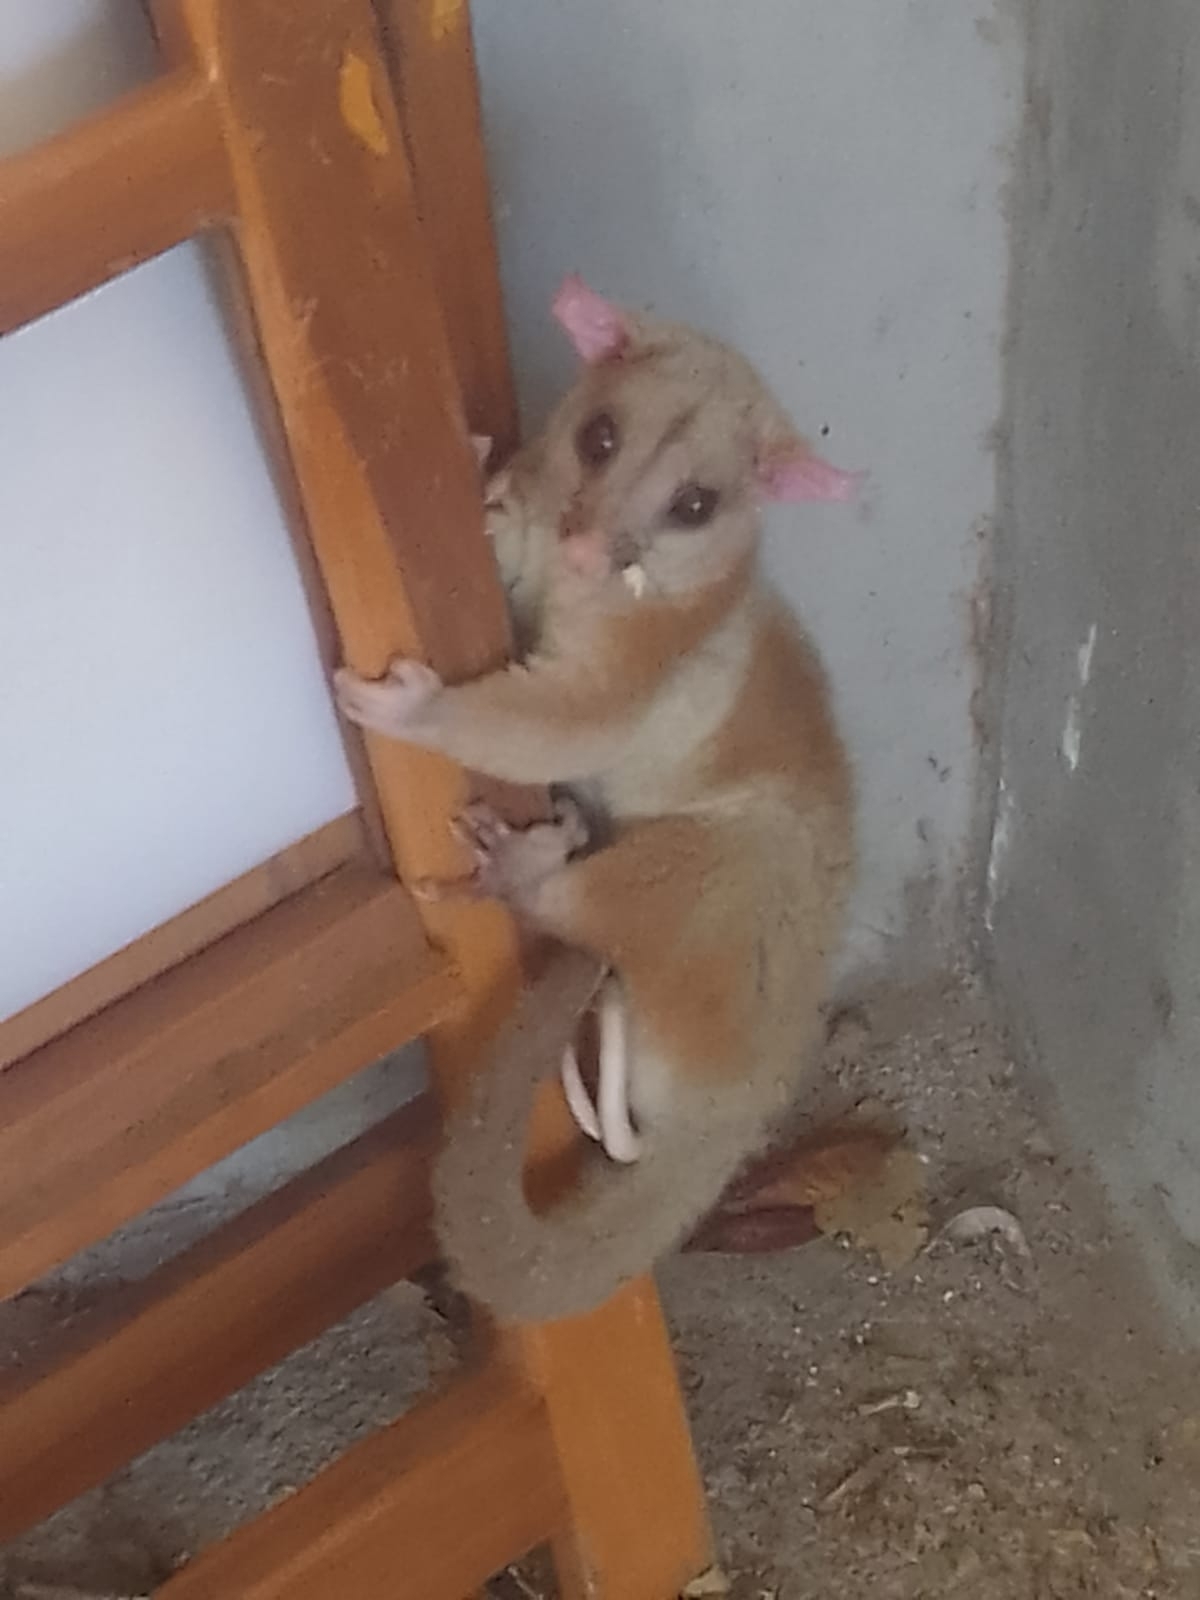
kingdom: Animalia
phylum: Chordata
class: Mammalia
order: Didelphimorphia
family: Didelphidae
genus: Caluromys
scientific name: Caluromys derbianus
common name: Derby's woolly opossum
